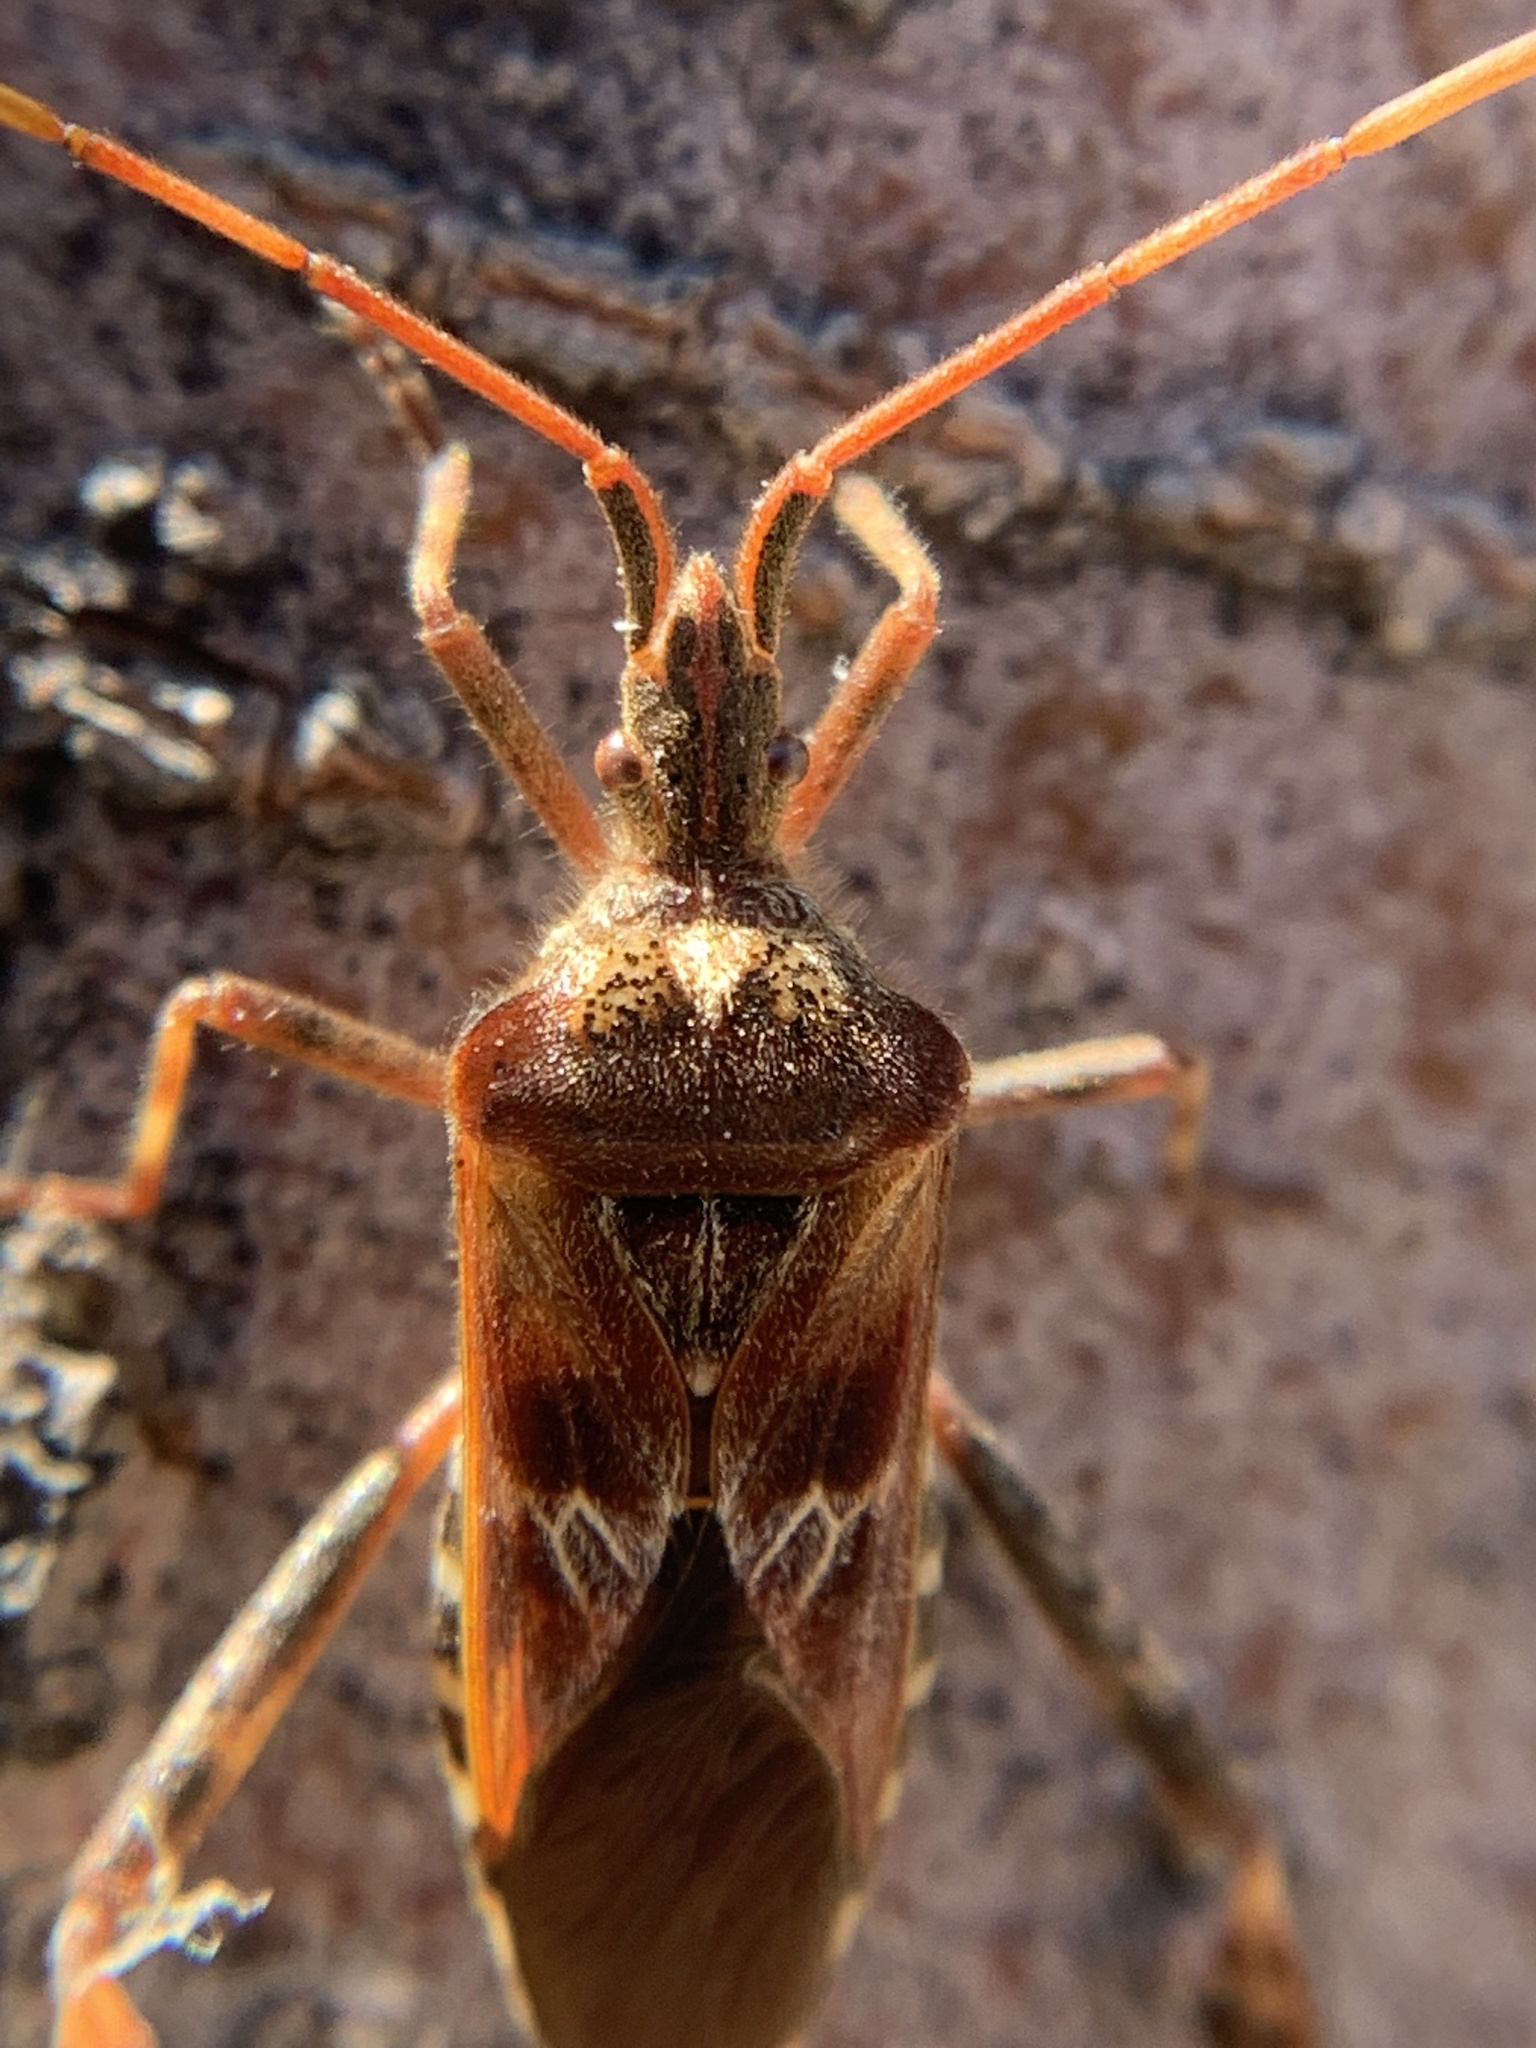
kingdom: Animalia
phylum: Arthropoda
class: Insecta
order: Hemiptera
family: Coreidae
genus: Leptoglossus
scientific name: Leptoglossus occidentalis
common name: Western conifer-seed bug
